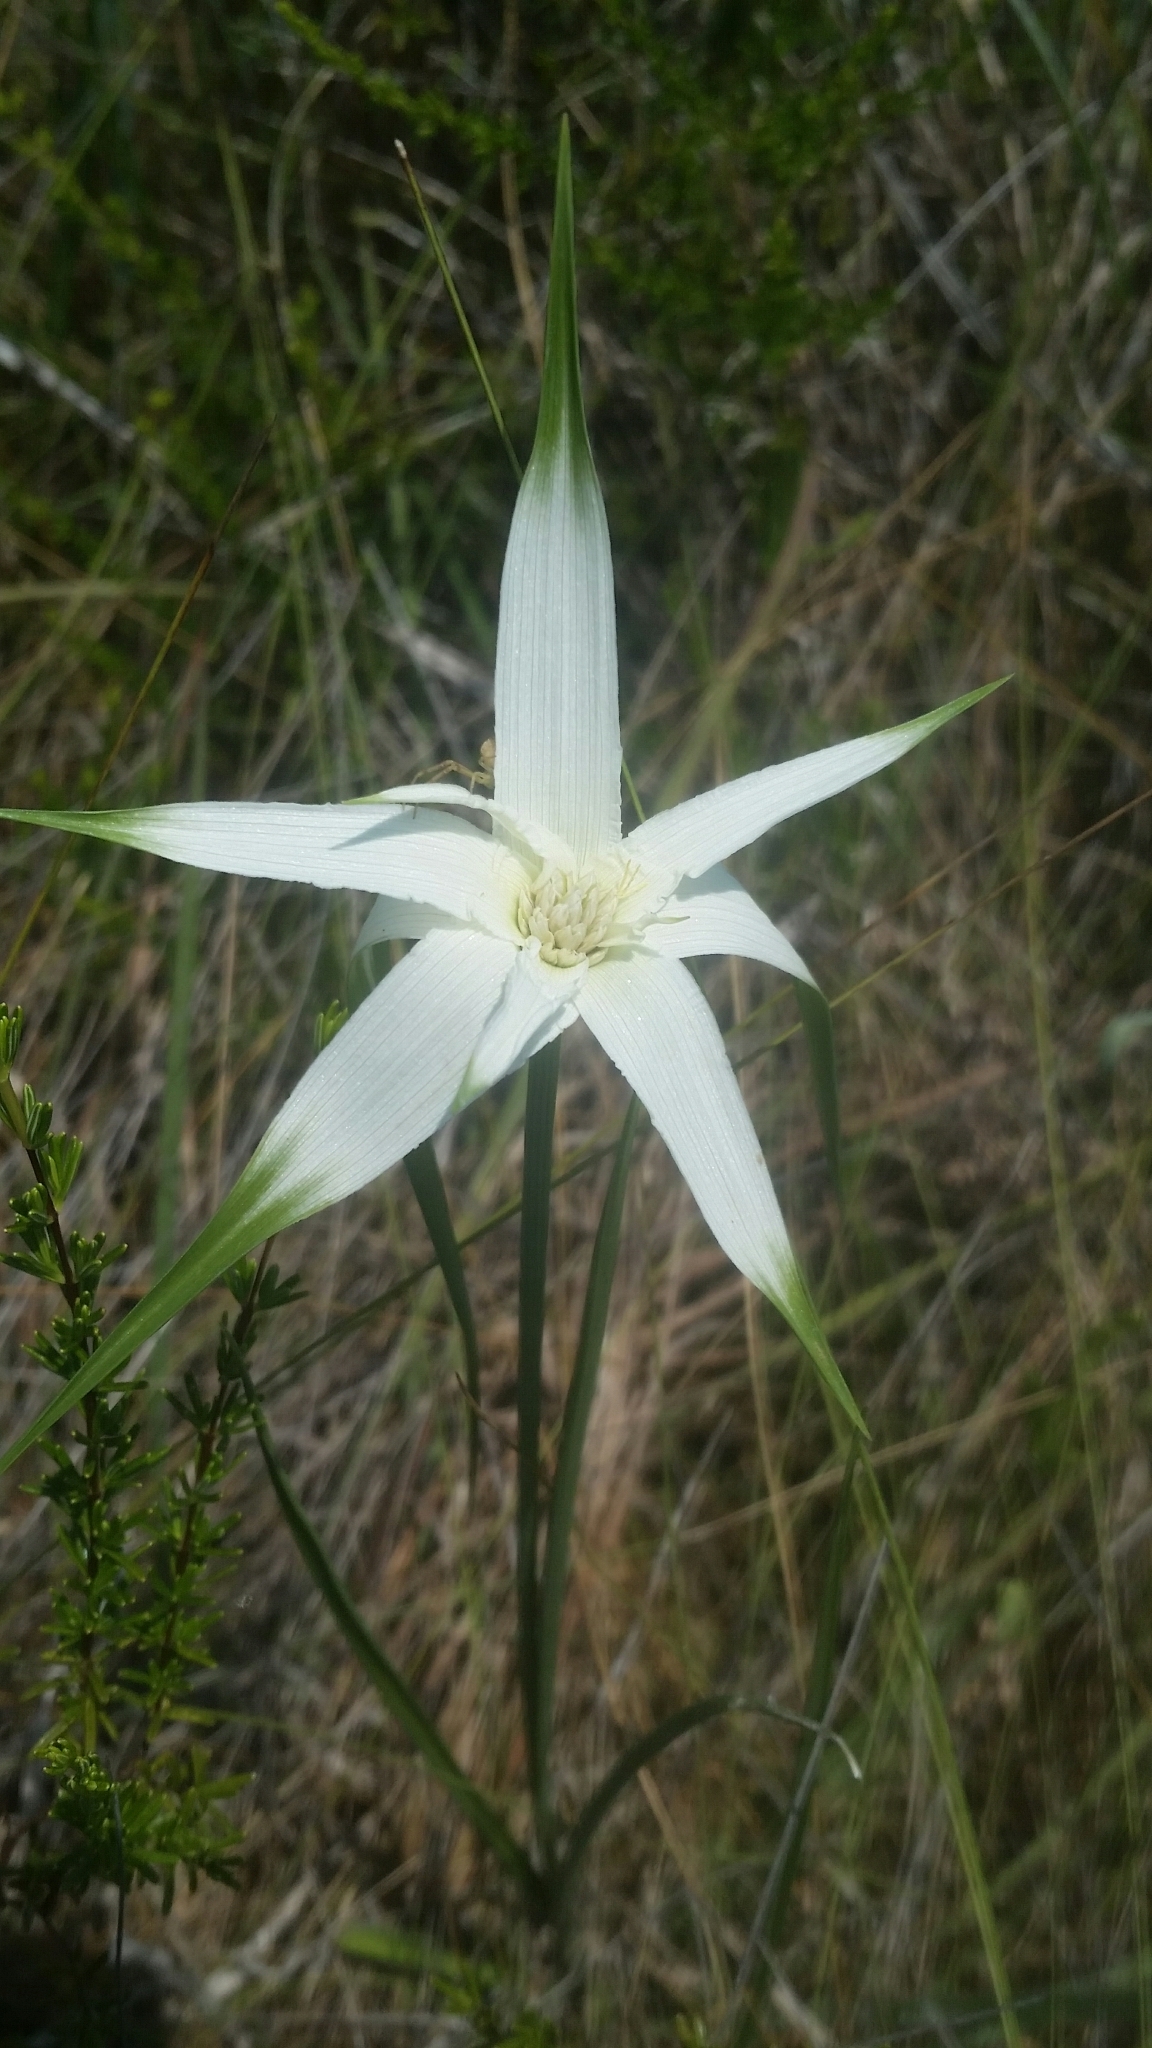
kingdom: Plantae
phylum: Tracheophyta
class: Liliopsida
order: Poales
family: Cyperaceae
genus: Rhynchospora
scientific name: Rhynchospora latifolia
